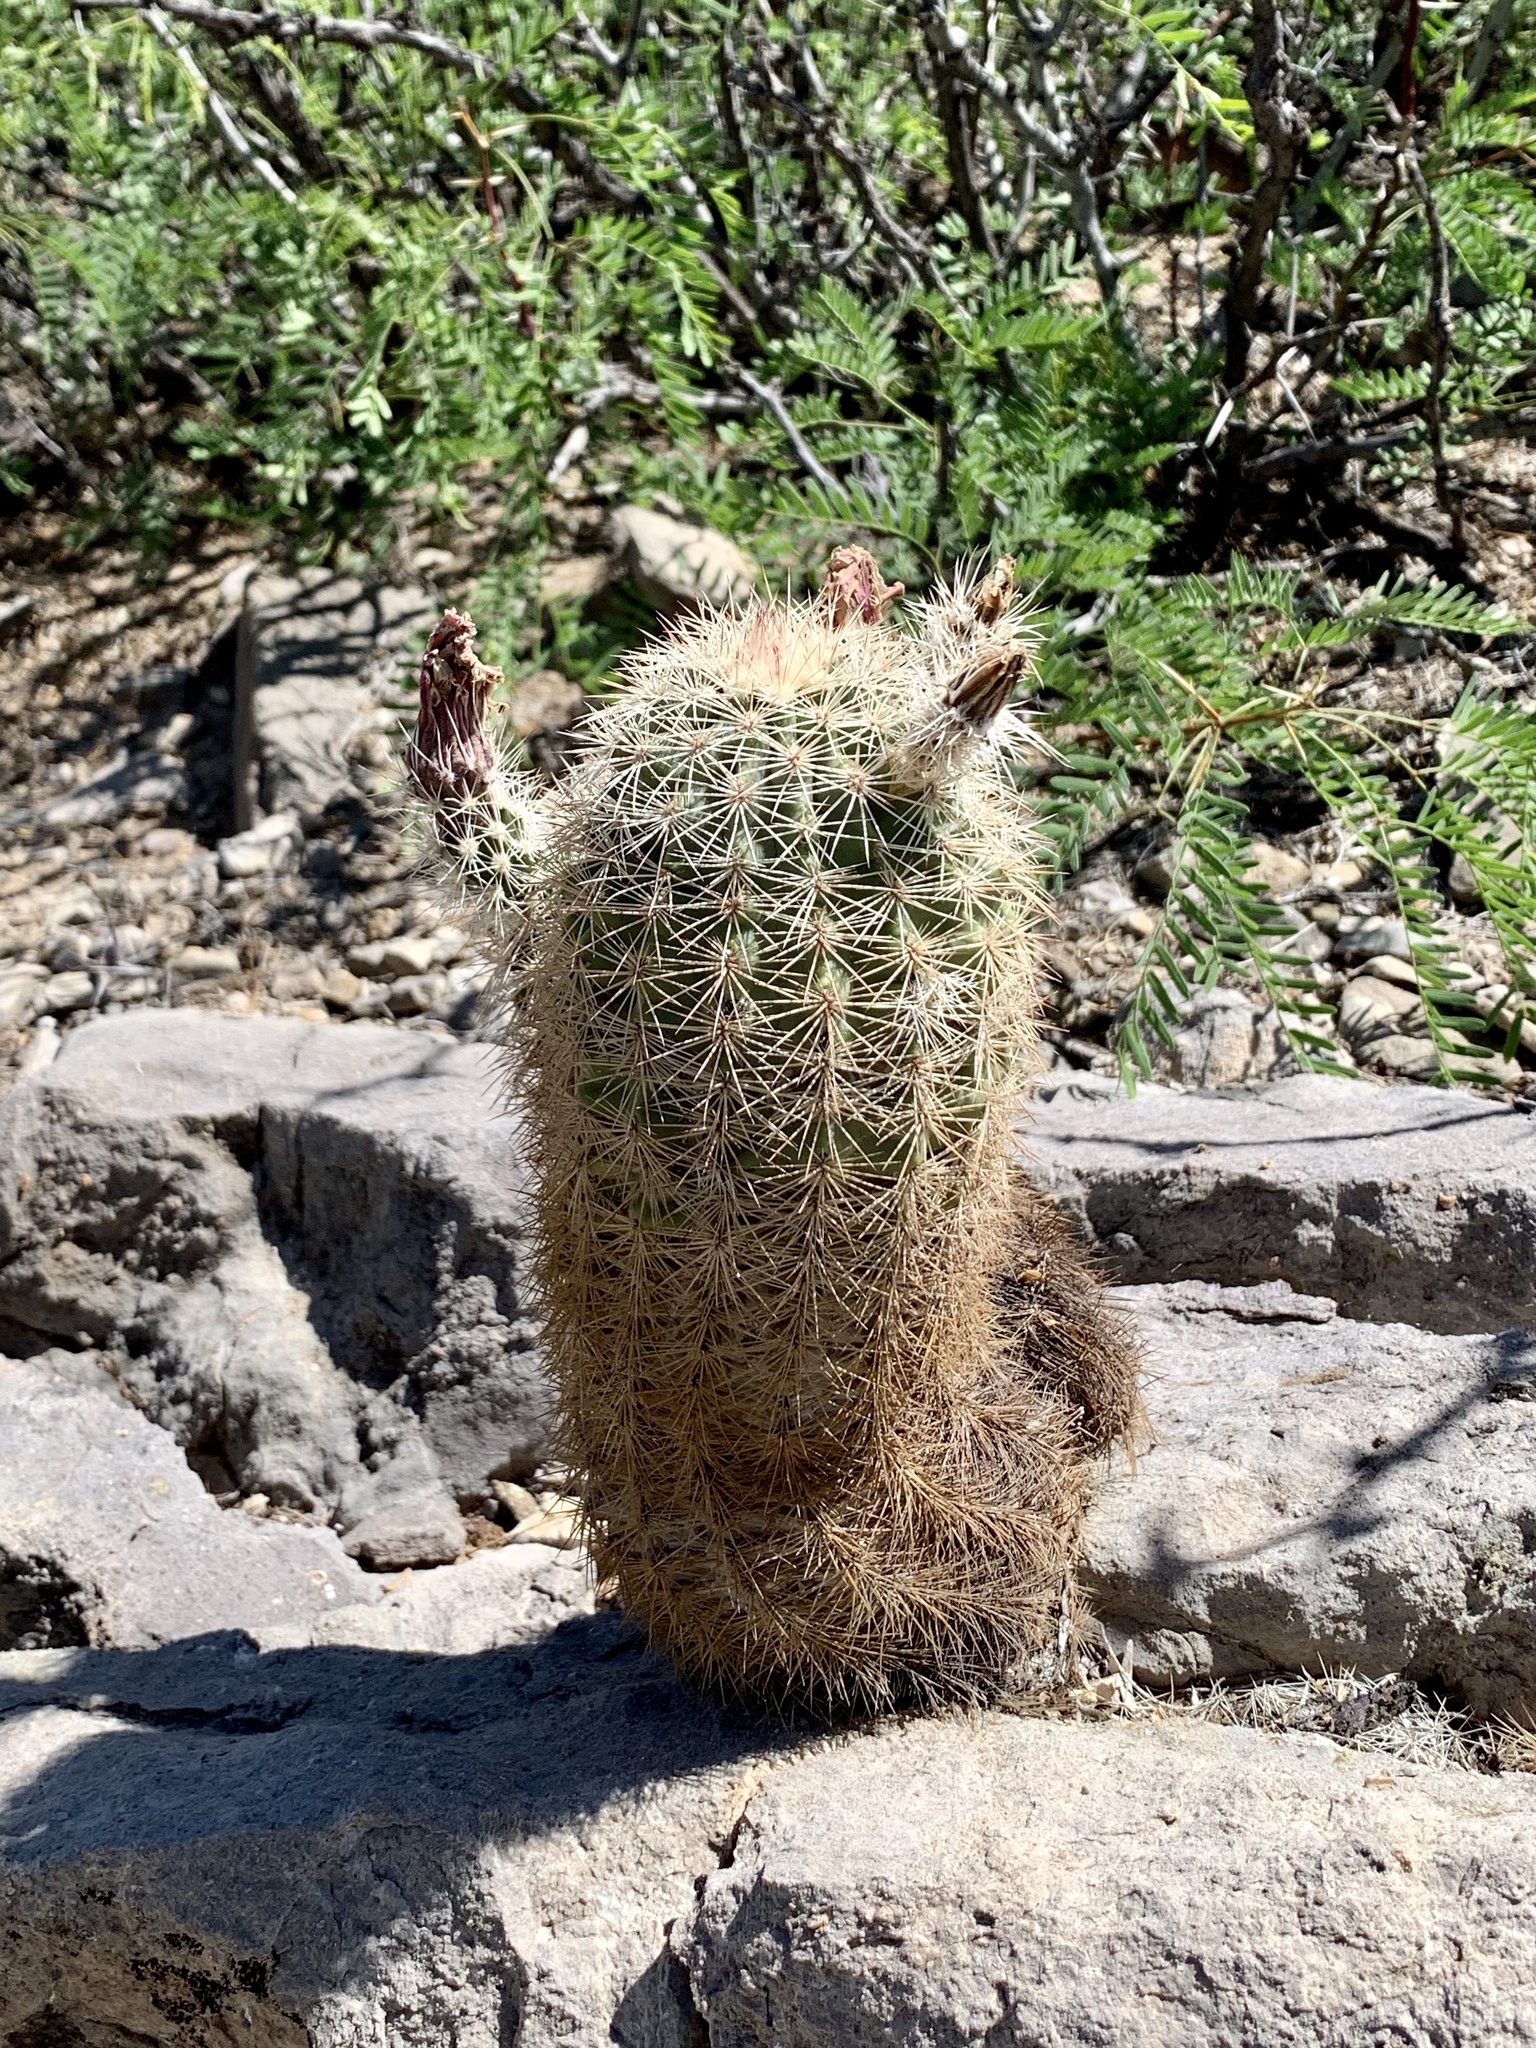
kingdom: Plantae
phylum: Tracheophyta
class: Magnoliopsida
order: Caryophyllales
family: Cactaceae
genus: Echinocereus
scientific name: Echinocereus dasyacanthus
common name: Spiny hedgehog cactus
